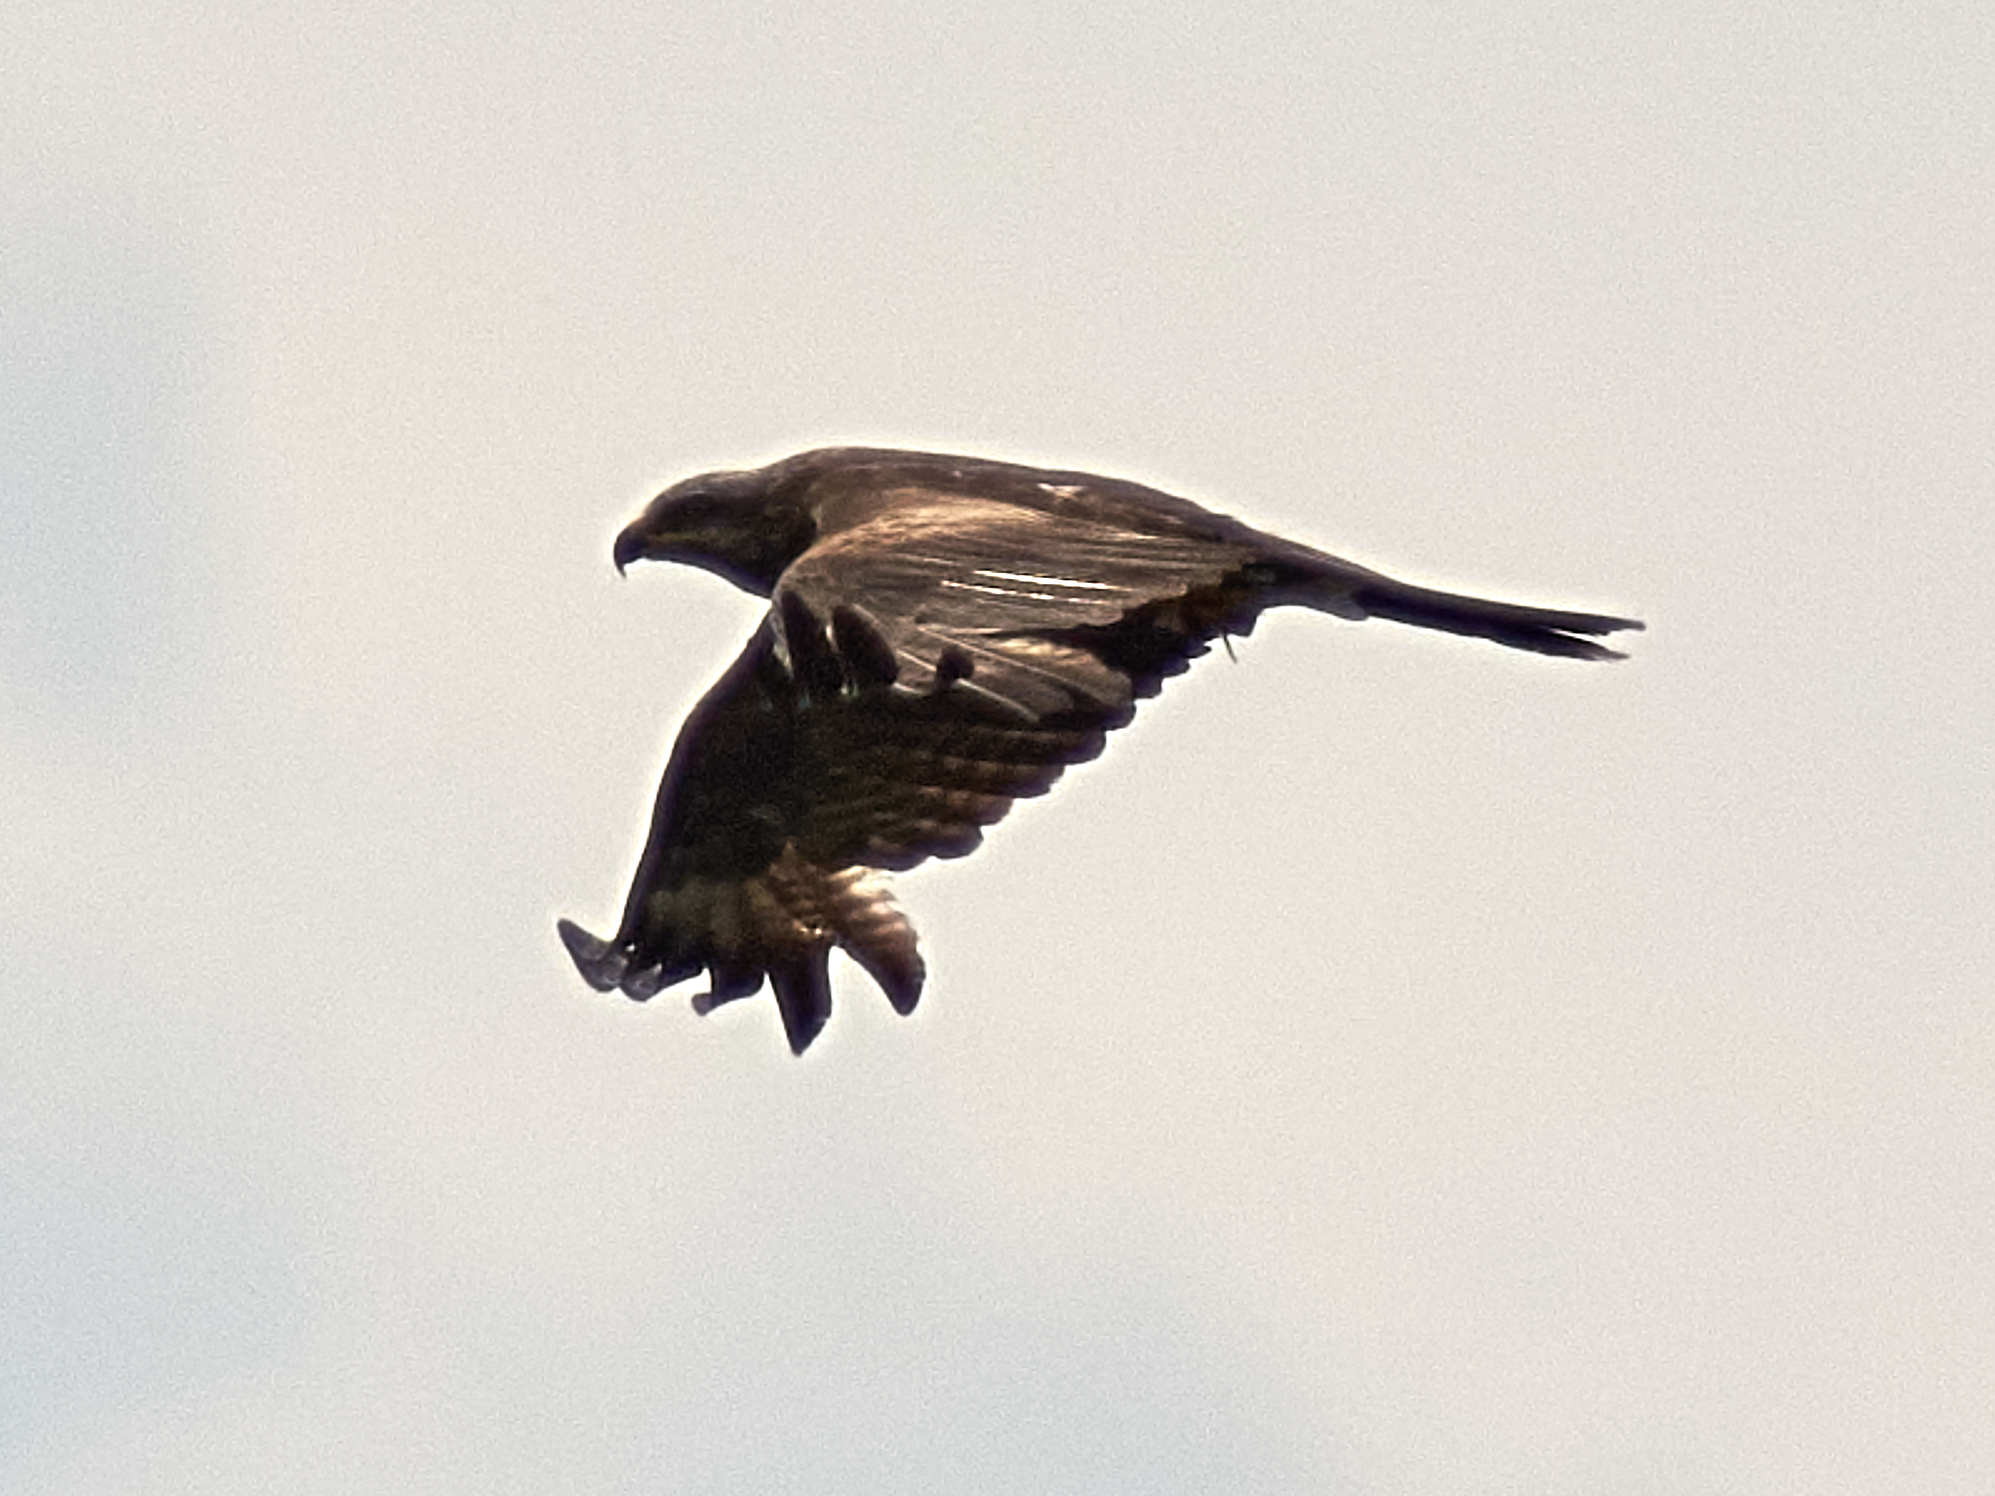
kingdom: Animalia
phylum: Chordata
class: Aves
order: Accipitriformes
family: Accipitridae
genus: Milvus
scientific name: Milvus migrans
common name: Black kite
